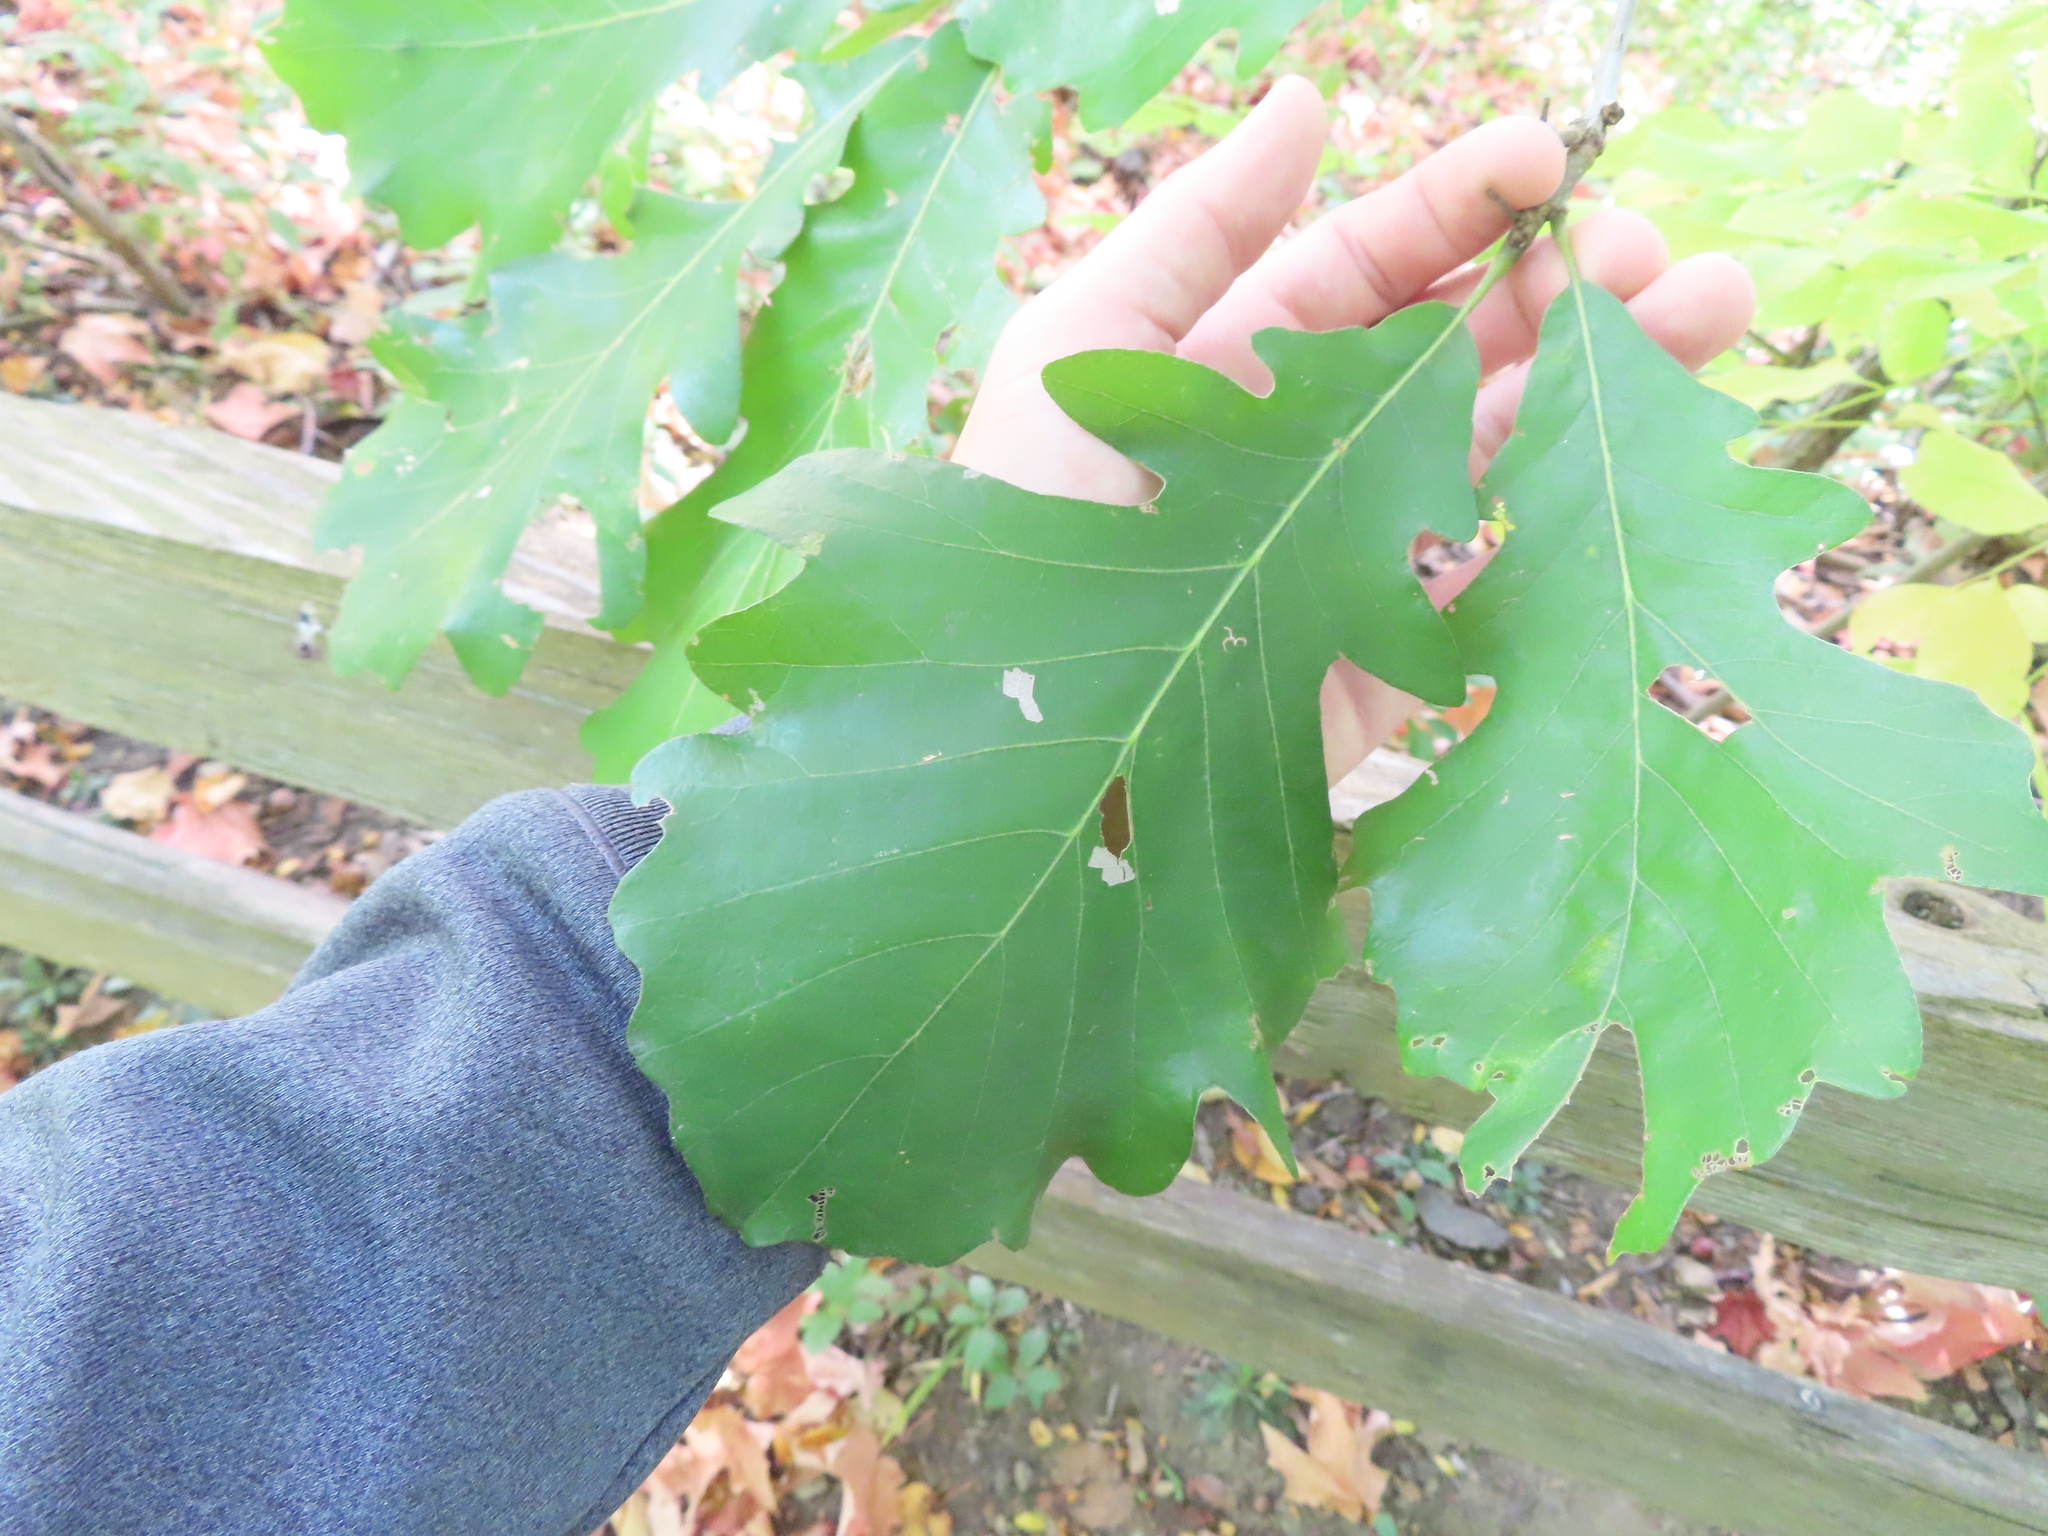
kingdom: Plantae
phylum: Tracheophyta
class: Magnoliopsida
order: Fagales
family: Fagaceae
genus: Quercus
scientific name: Quercus macrocarpa
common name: Bur oak
